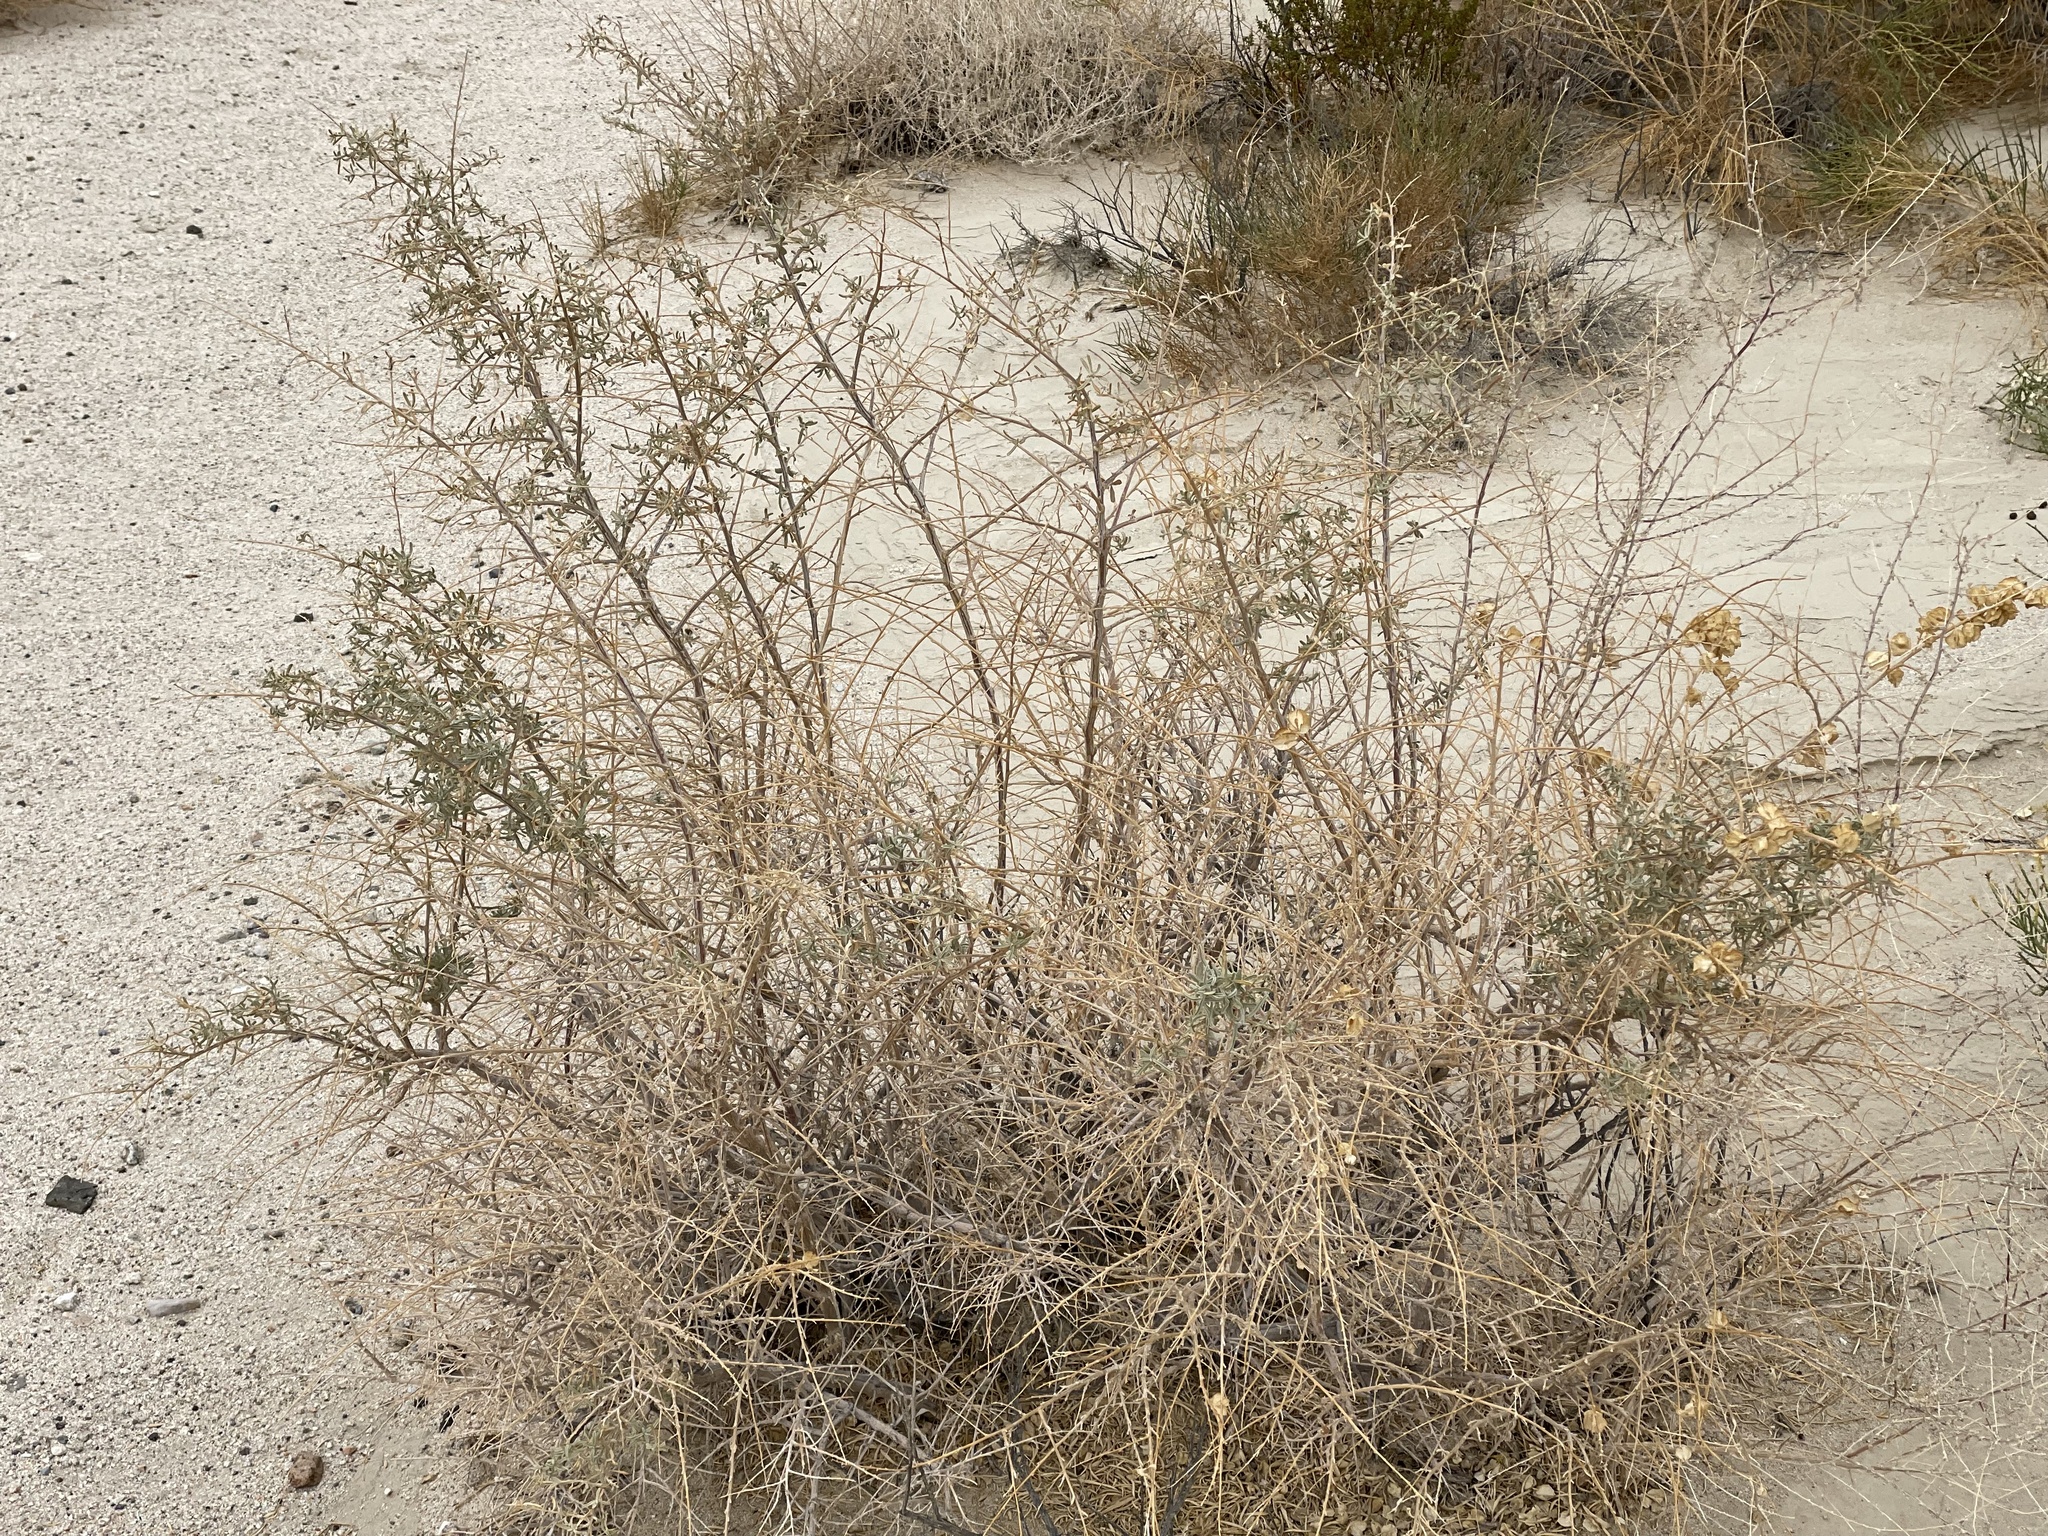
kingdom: Plantae
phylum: Tracheophyta
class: Magnoliopsida
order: Caryophyllales
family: Amaranthaceae
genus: Atriplex
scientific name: Atriplex canescens
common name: Four-wing saltbush
